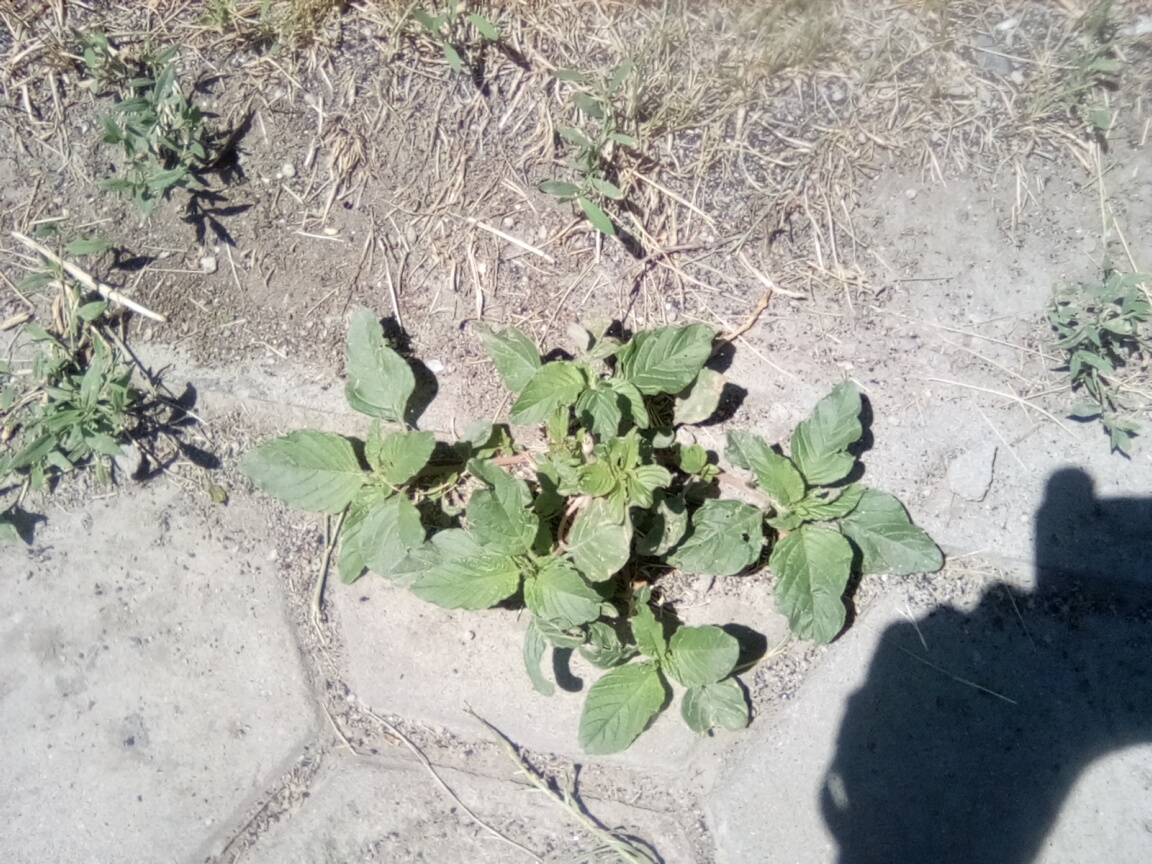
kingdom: Plantae
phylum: Tracheophyta
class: Magnoliopsida
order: Caryophyllales
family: Amaranthaceae
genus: Amaranthus
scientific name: Amaranthus retroflexus
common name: Redroot amaranth
